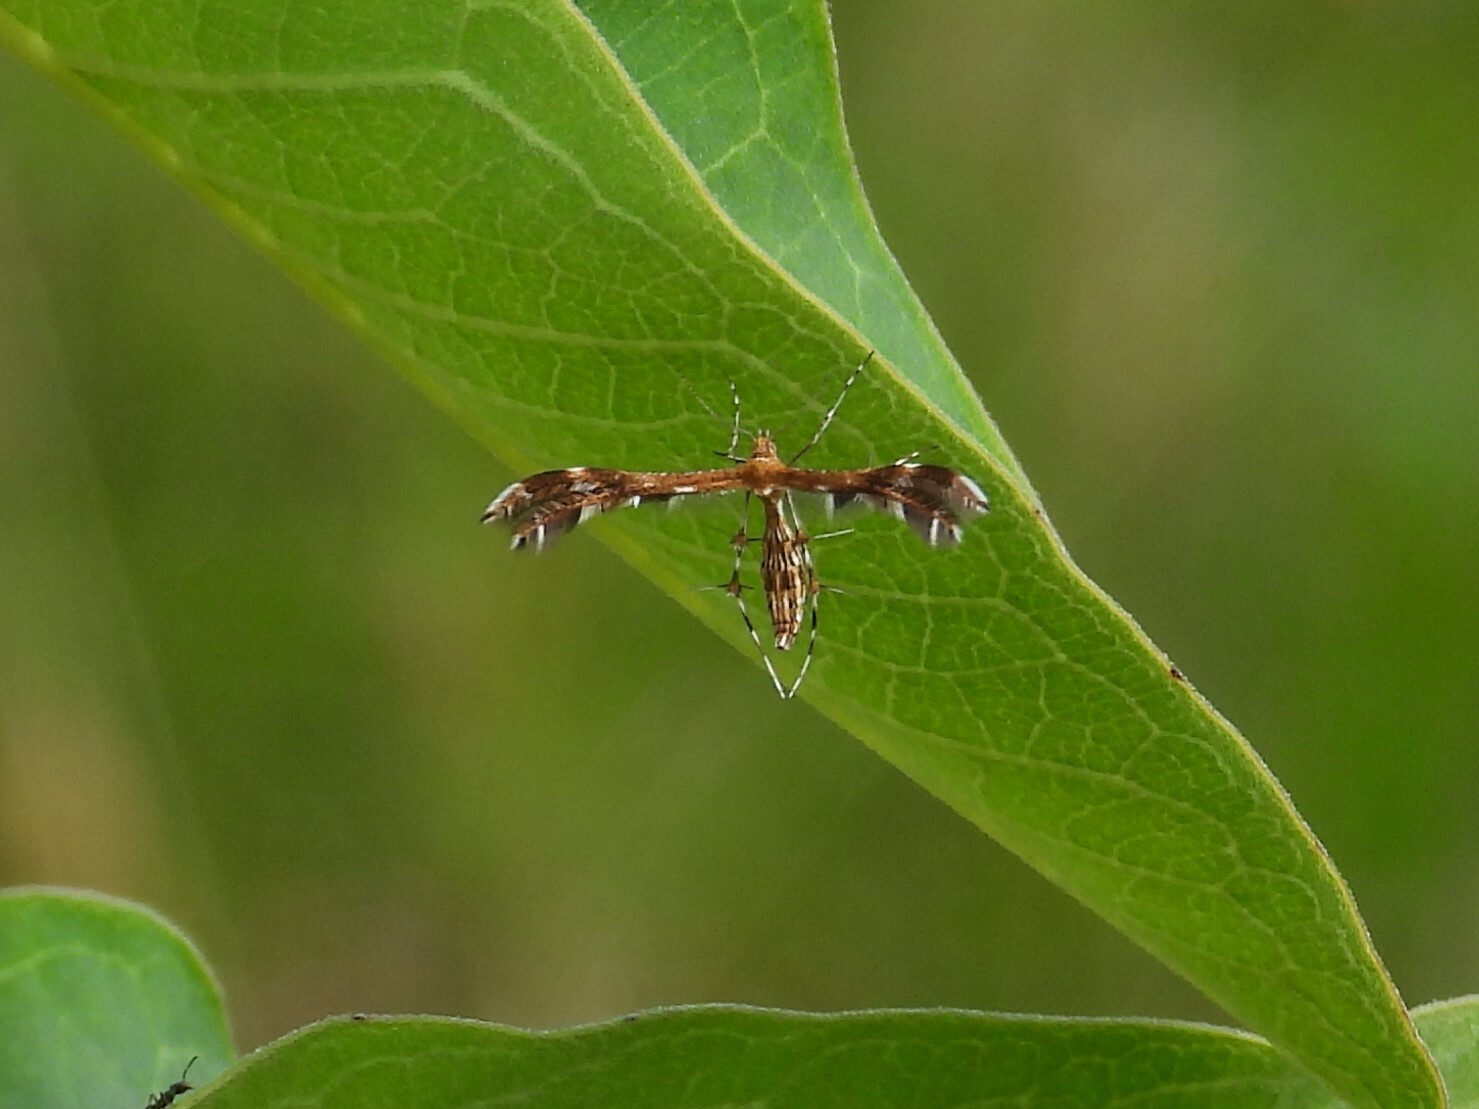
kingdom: Animalia
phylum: Arthropoda
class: Insecta
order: Lepidoptera
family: Pterophoridae
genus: Dejongia
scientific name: Dejongia lobidactylus
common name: Lobed plume moth
